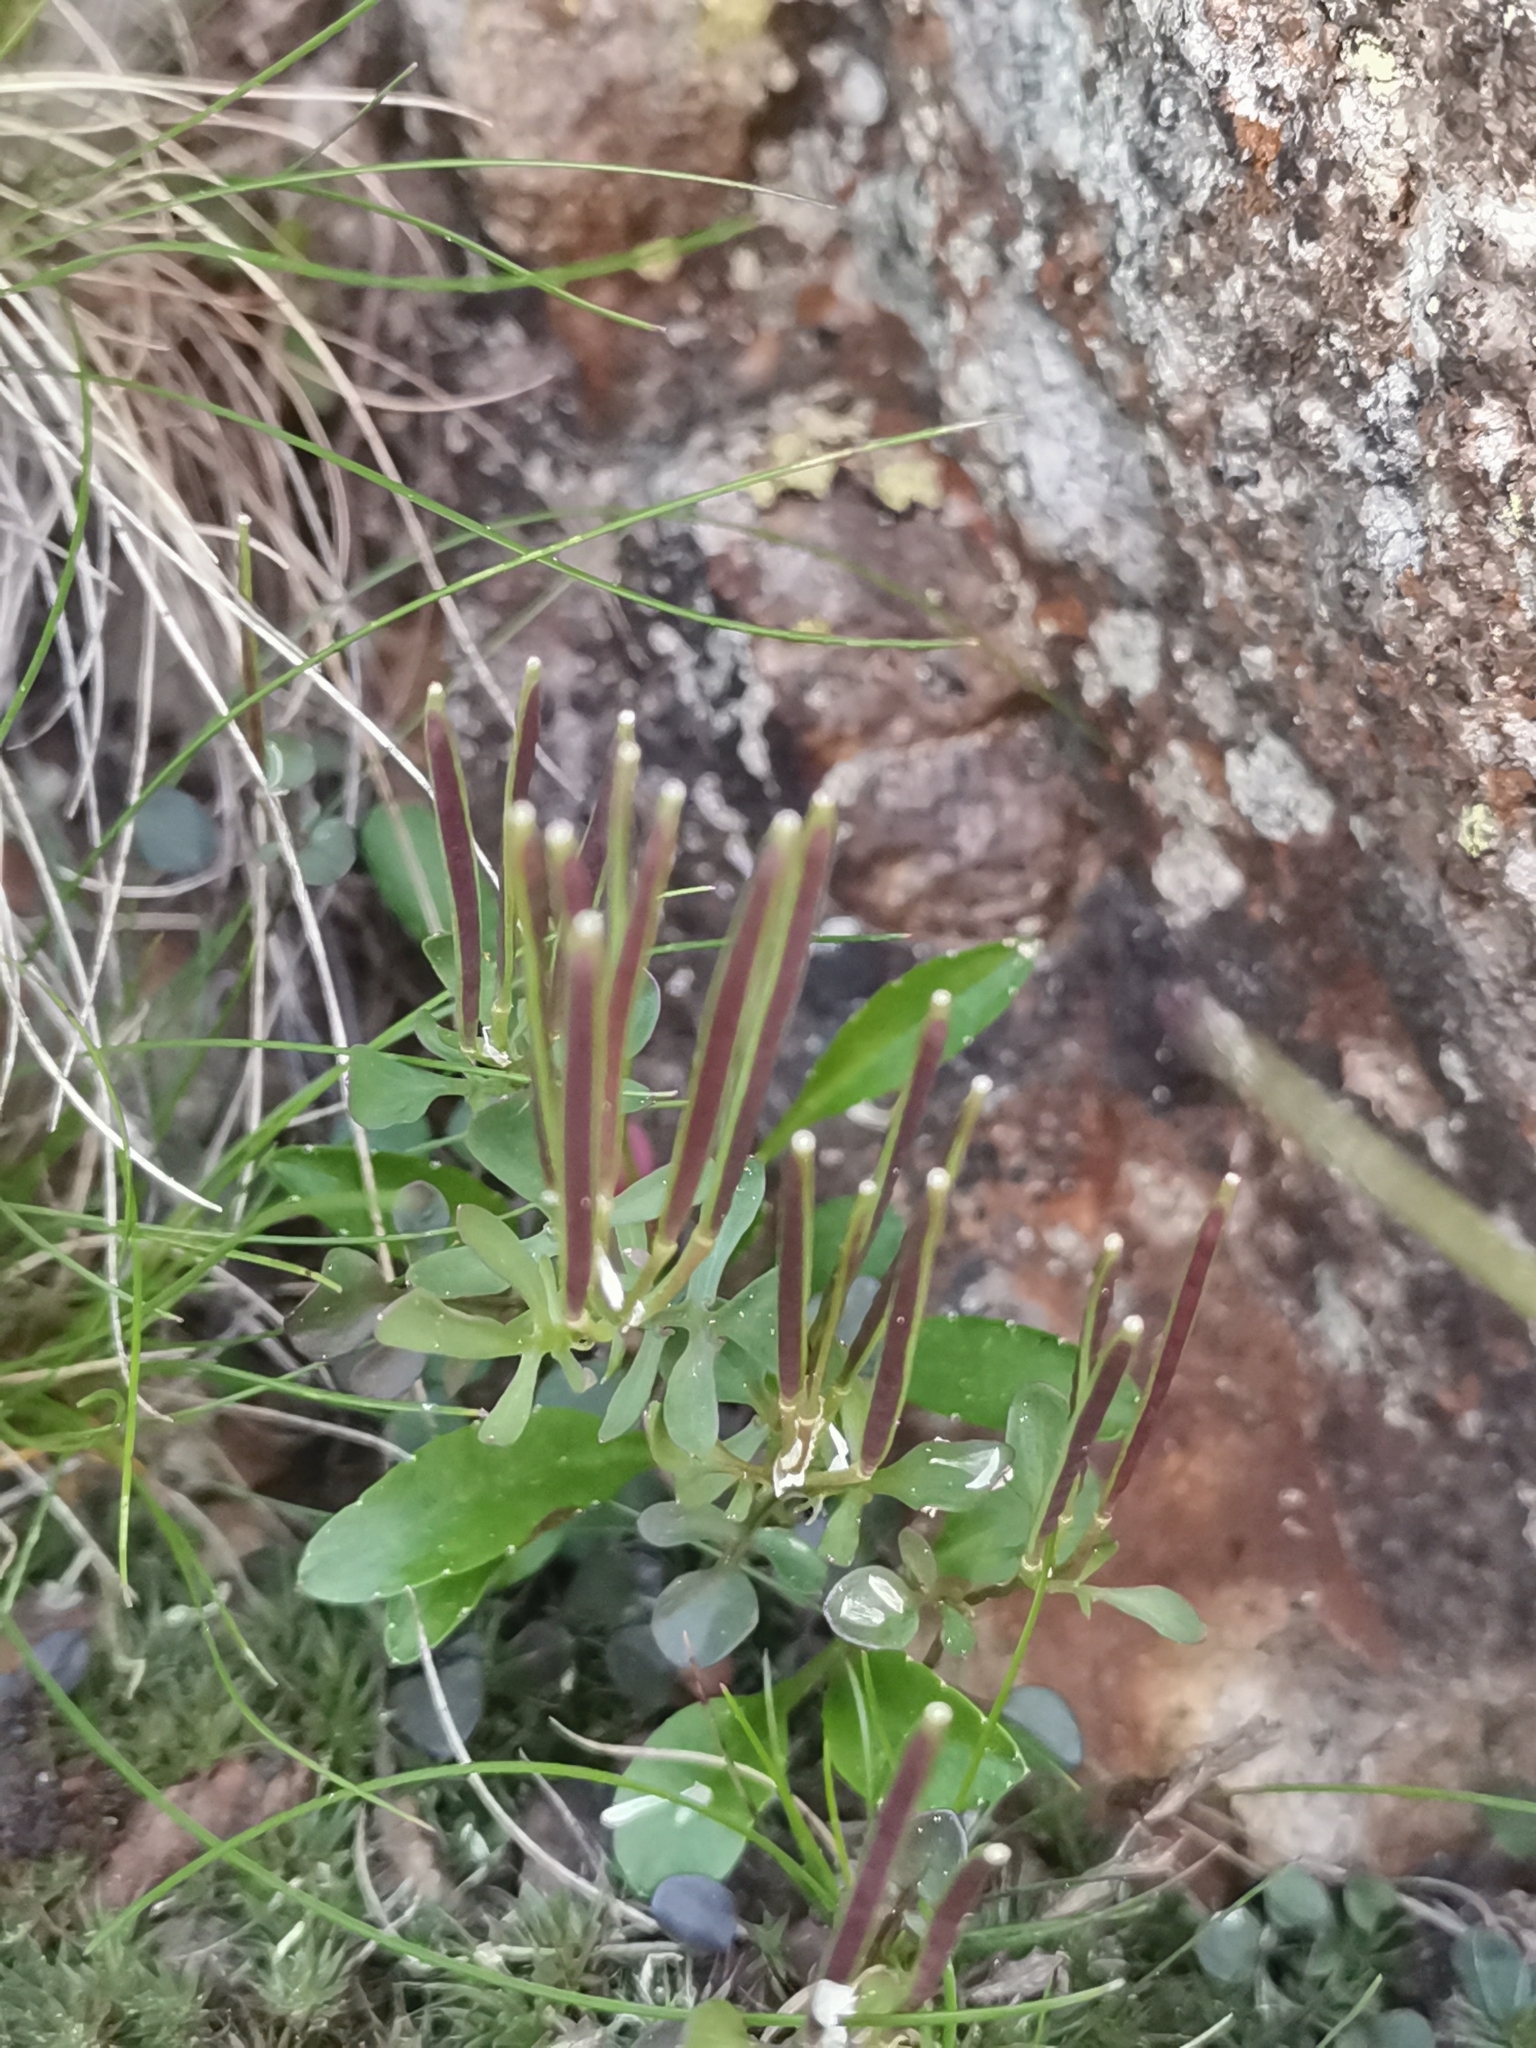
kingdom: Plantae
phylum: Tracheophyta
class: Magnoliopsida
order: Brassicales
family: Brassicaceae
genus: Cardamine
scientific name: Cardamine resedifolia
